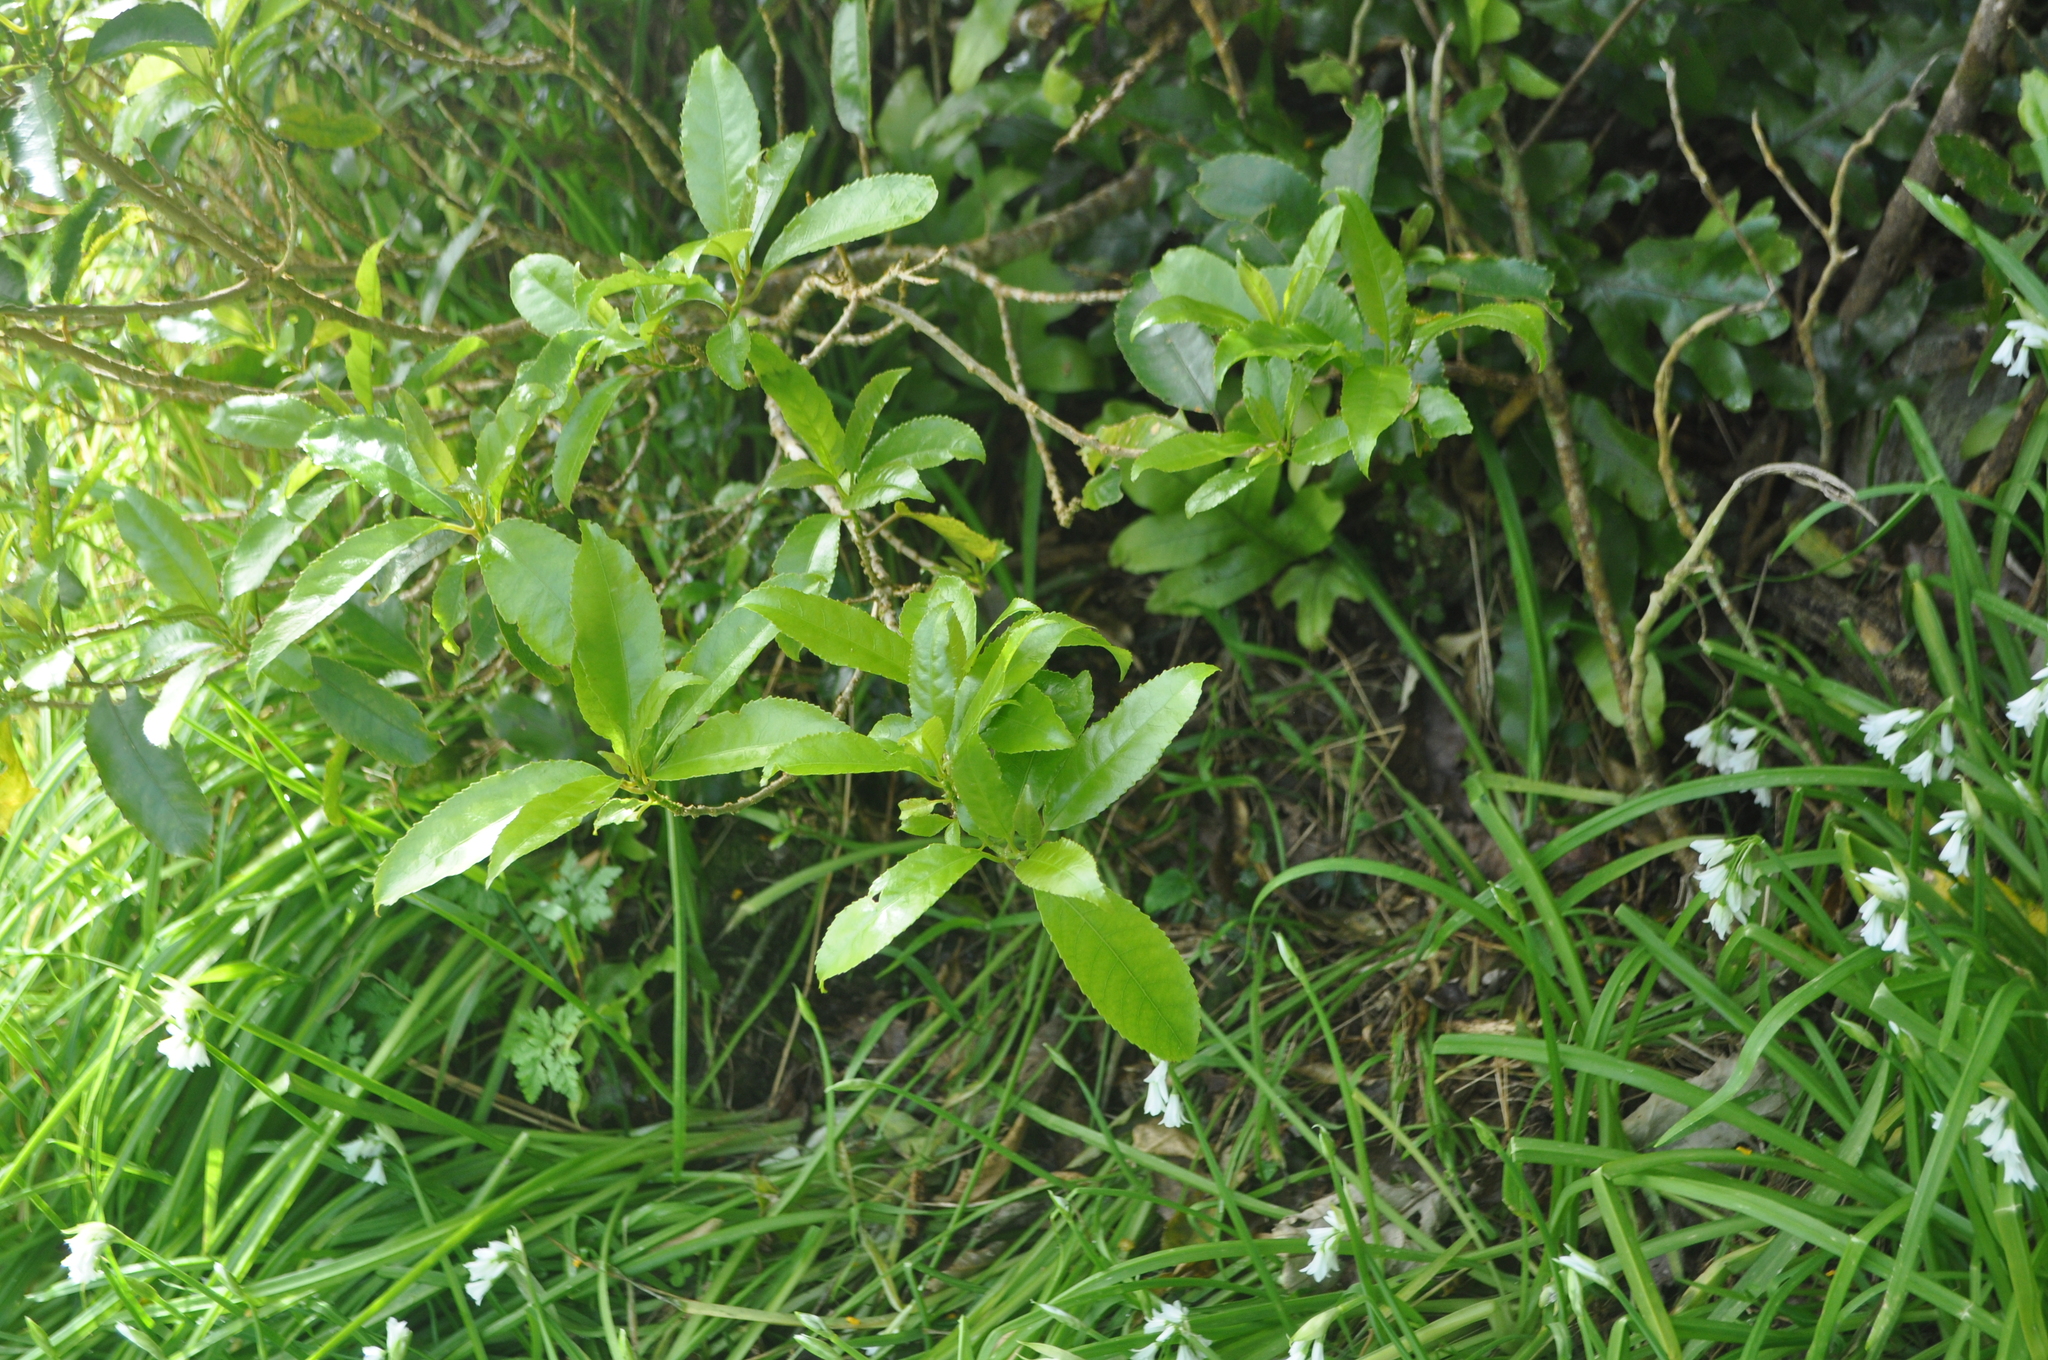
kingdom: Plantae
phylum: Tracheophyta
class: Magnoliopsida
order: Malpighiales
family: Violaceae
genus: Melicytus
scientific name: Melicytus ramiflorus
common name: Mahoe
